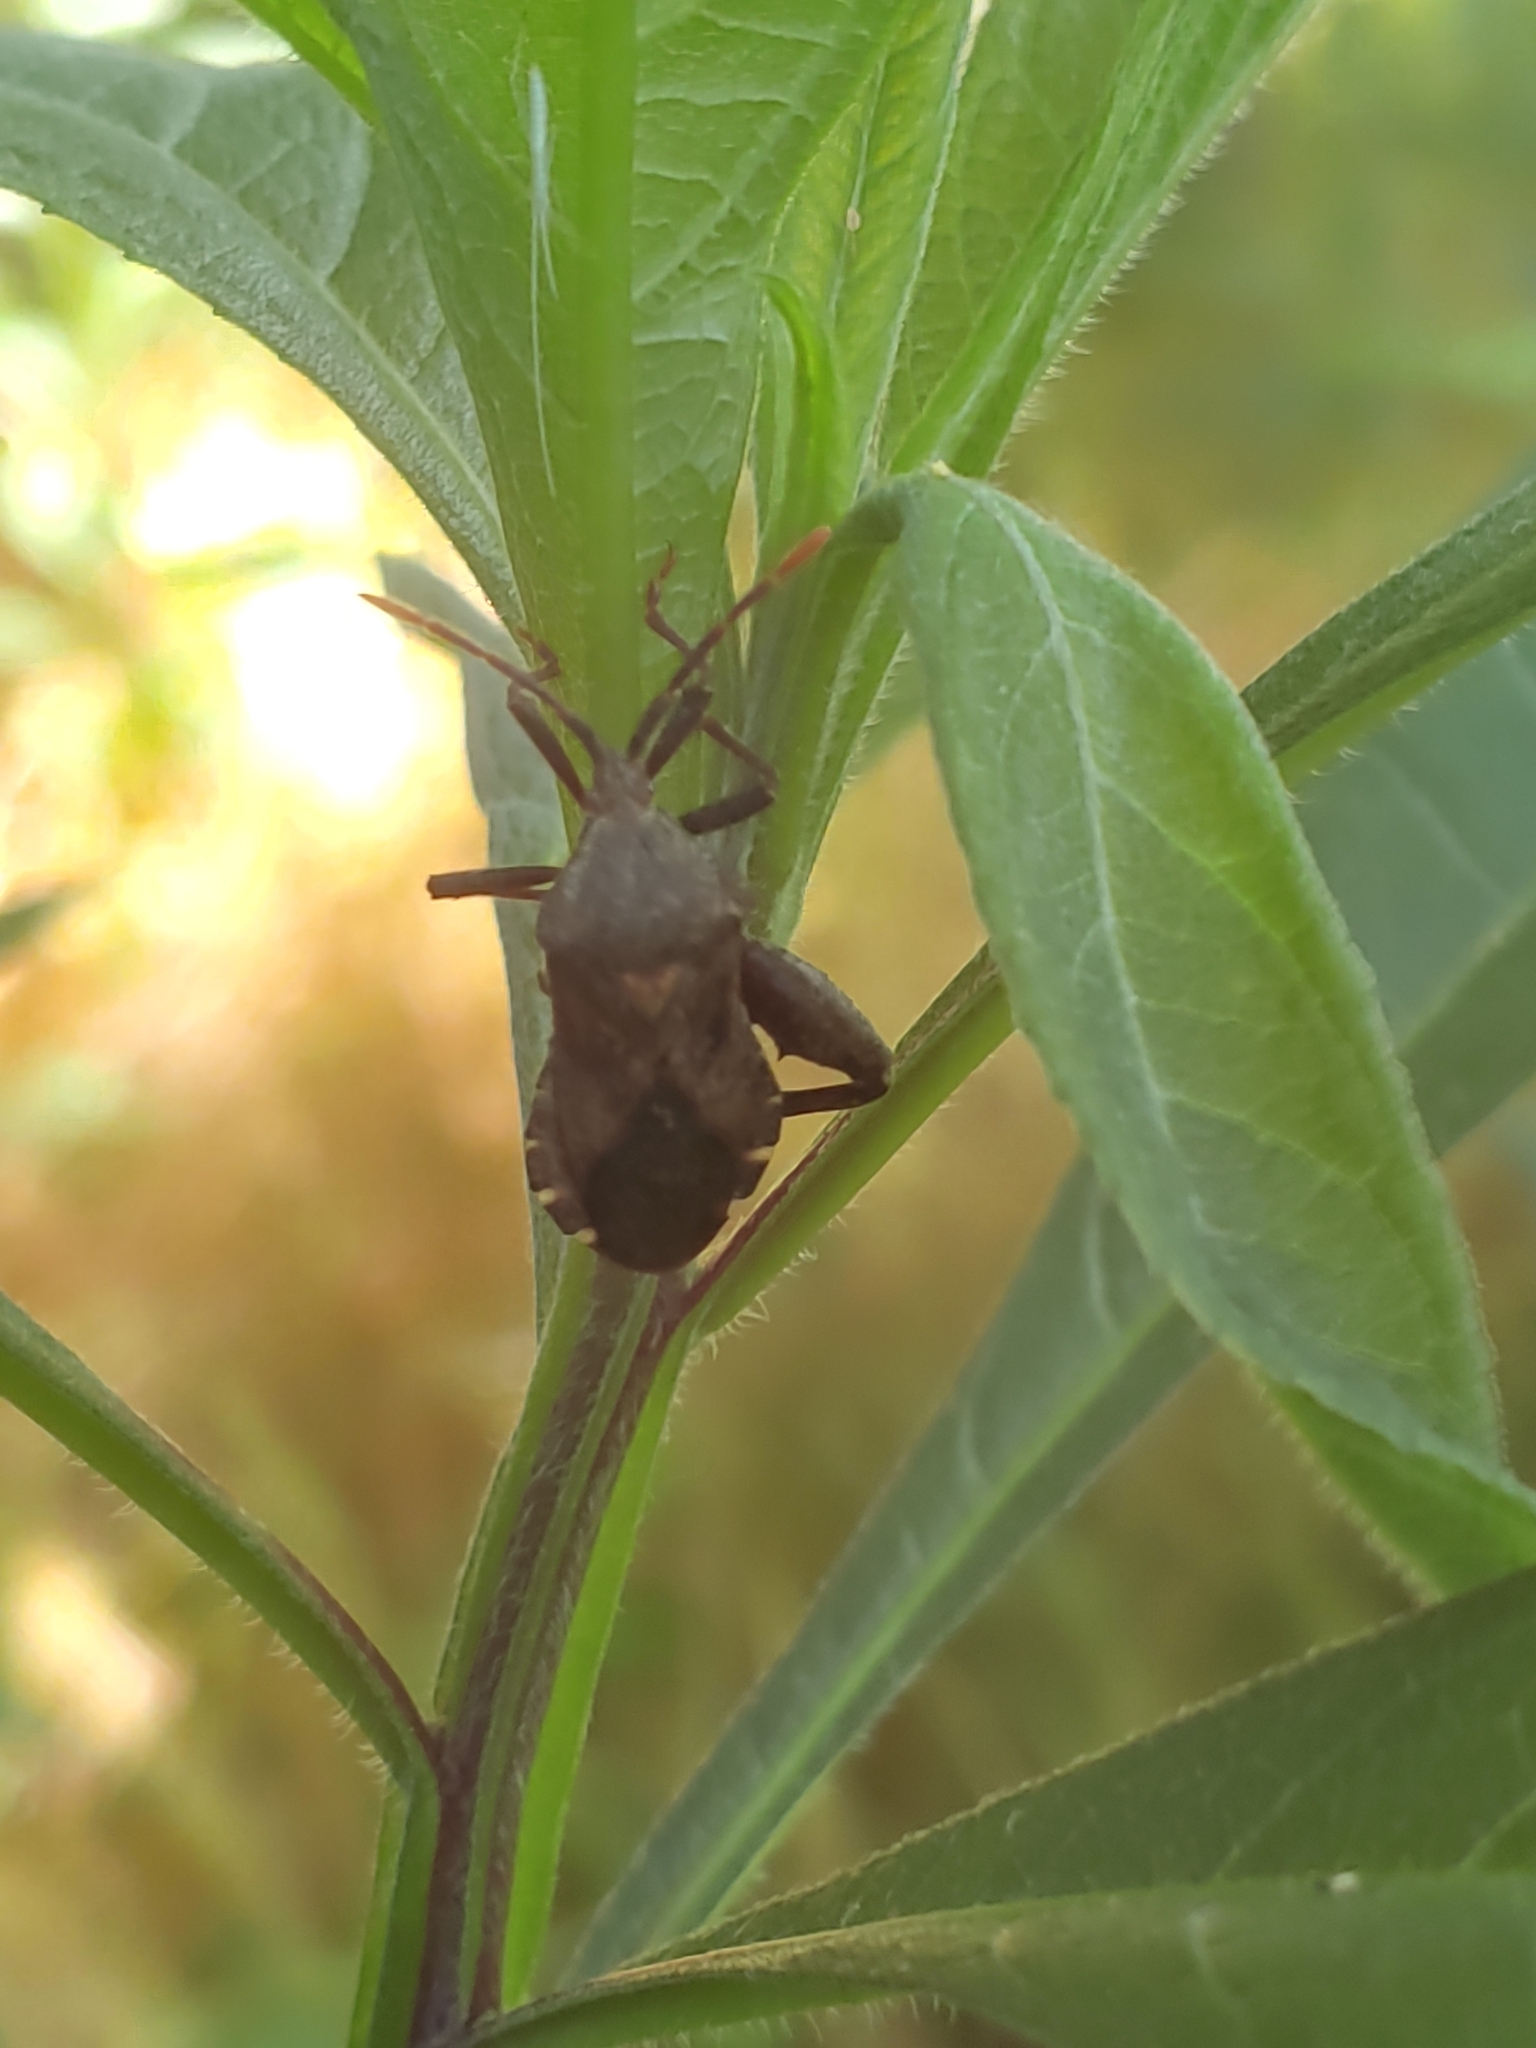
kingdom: Animalia
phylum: Arthropoda
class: Insecta
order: Hemiptera
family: Coreidae
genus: Piezogaster
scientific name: Piezogaster calcarator
